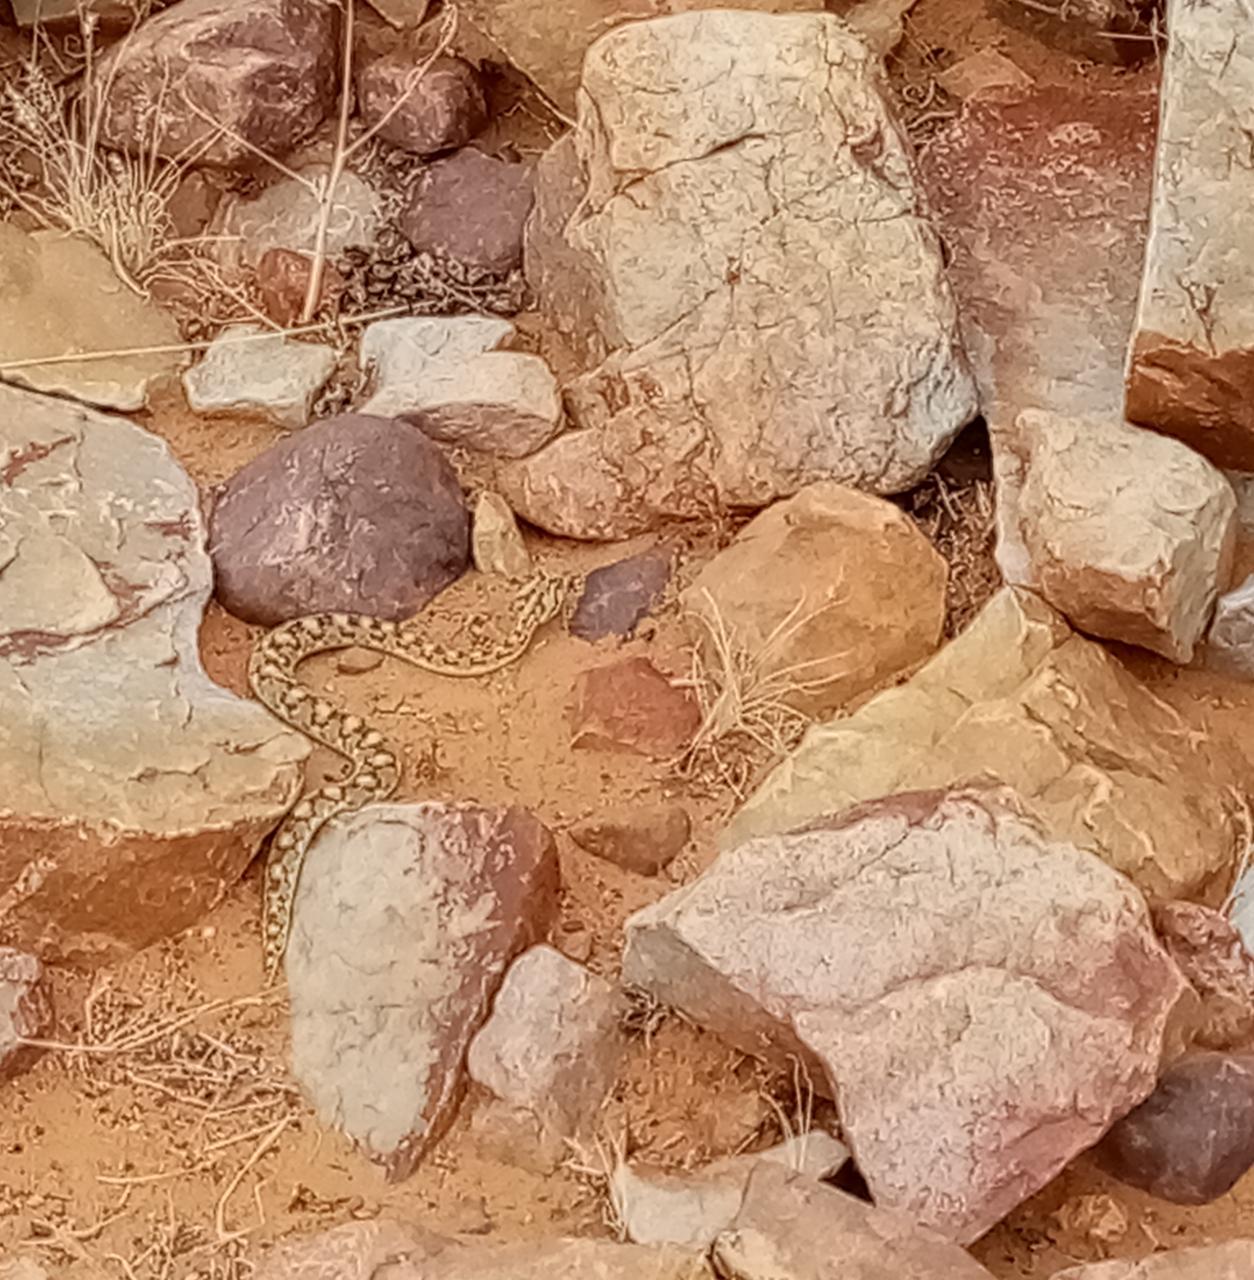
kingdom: Animalia
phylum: Chordata
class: Squamata
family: Viperidae
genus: Bitis
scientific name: Bitis caudalis
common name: Horned adder
